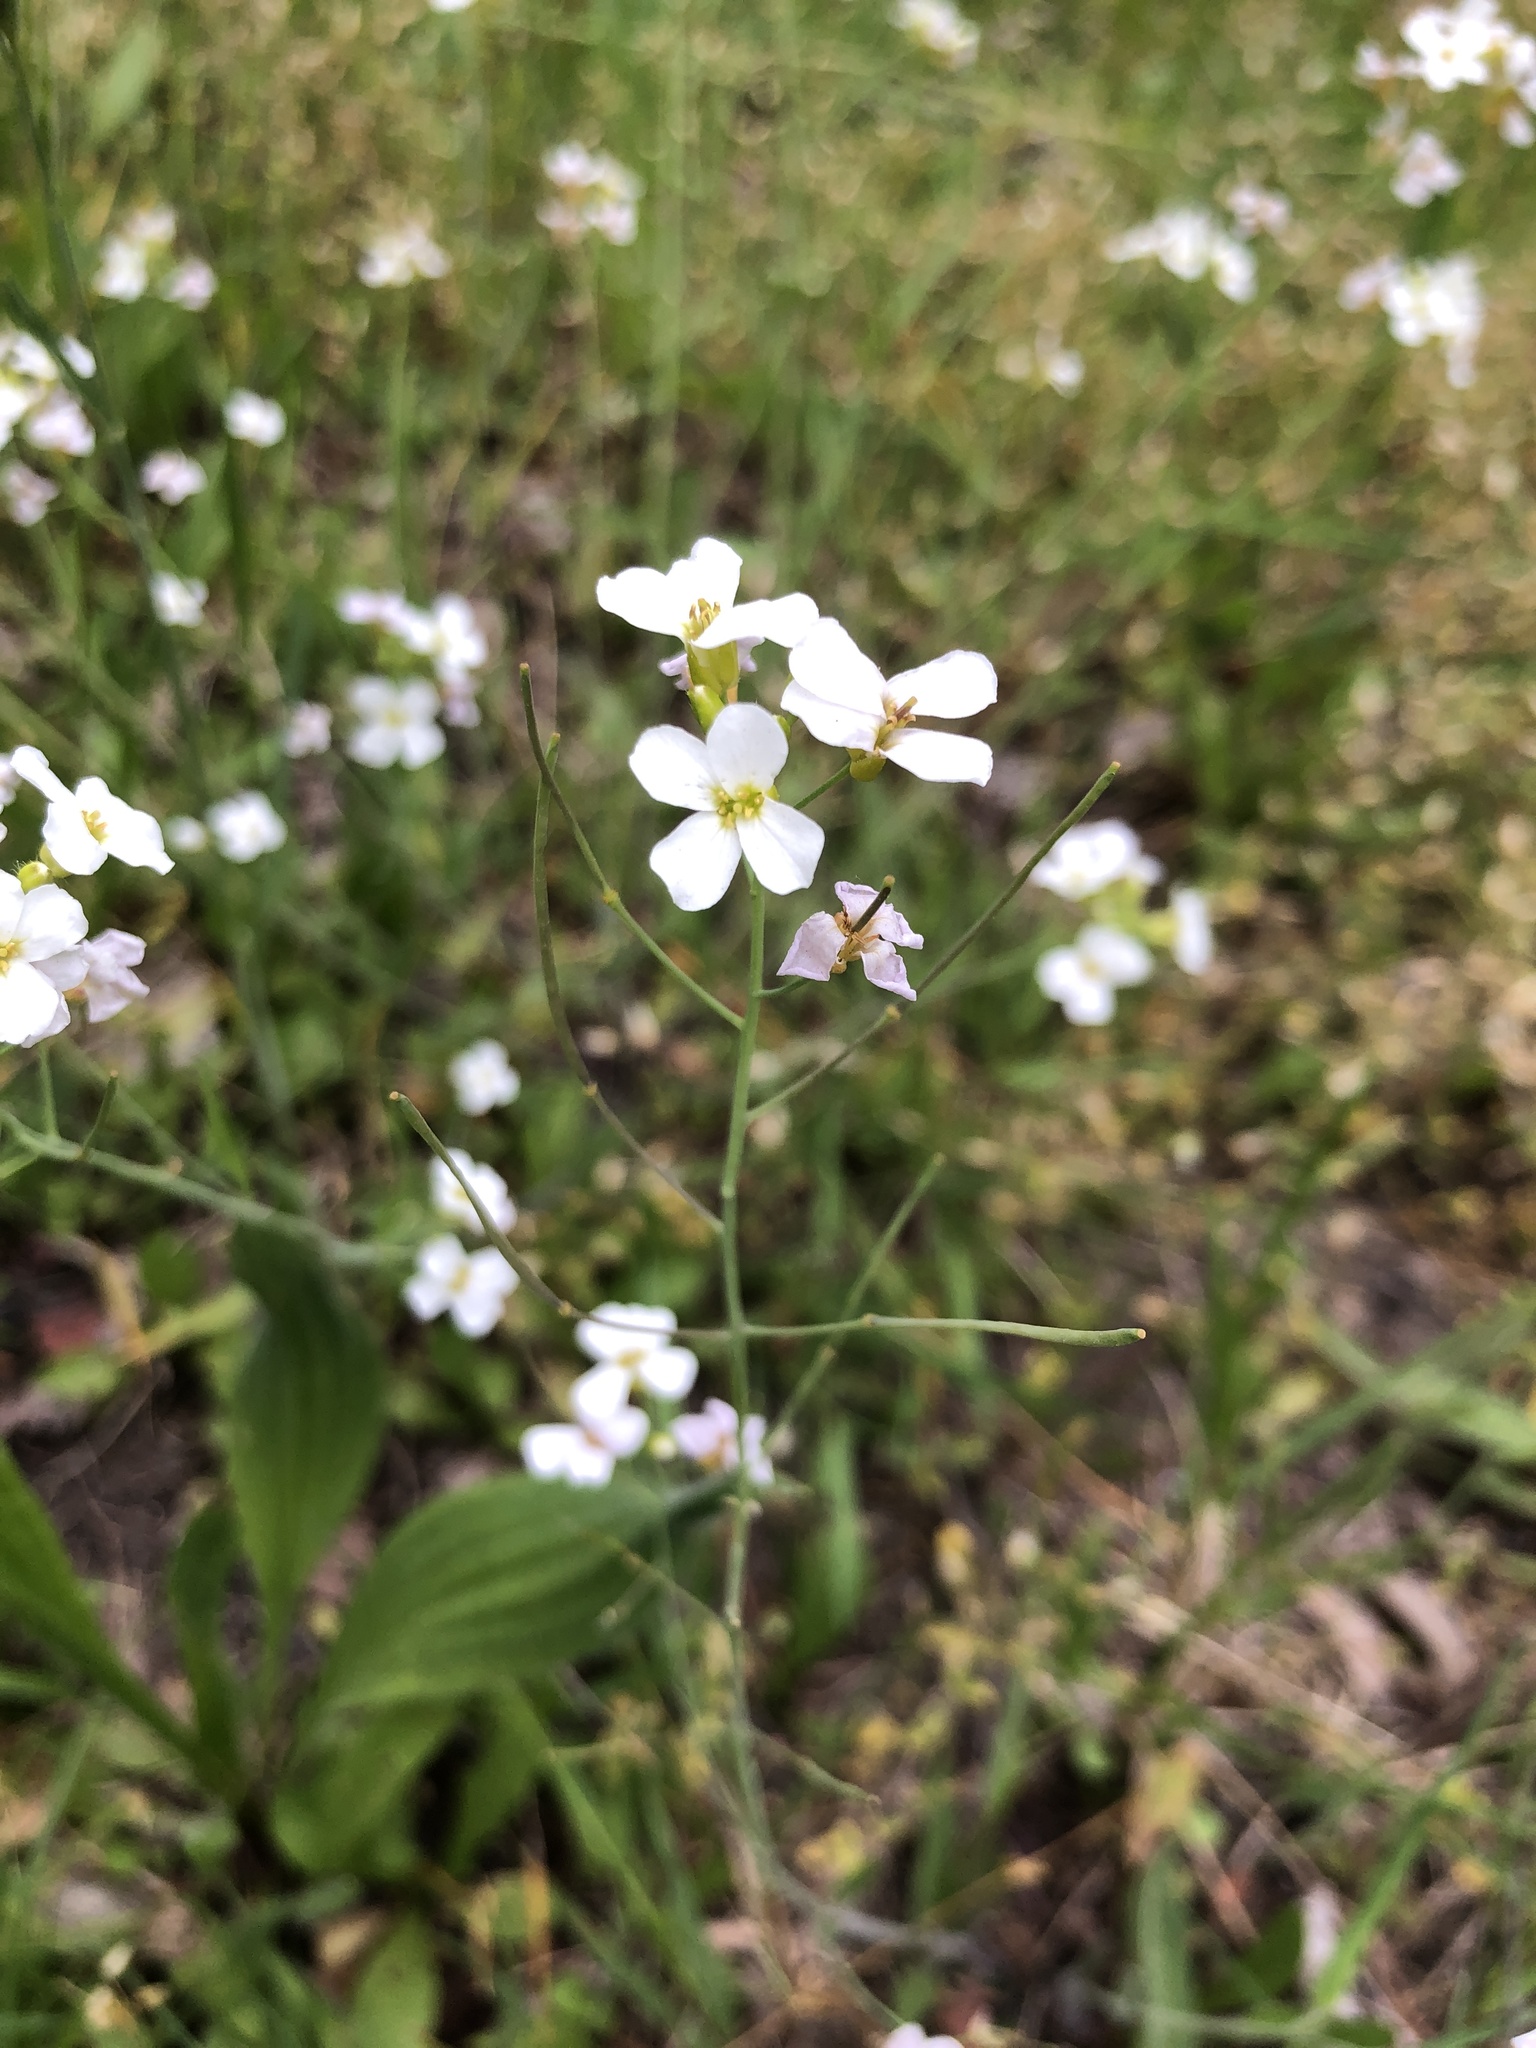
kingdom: Plantae
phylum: Tracheophyta
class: Magnoliopsida
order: Brassicales
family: Brassicaceae
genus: Arabidopsis
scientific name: Arabidopsis arenosa
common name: Sand rock-cress
